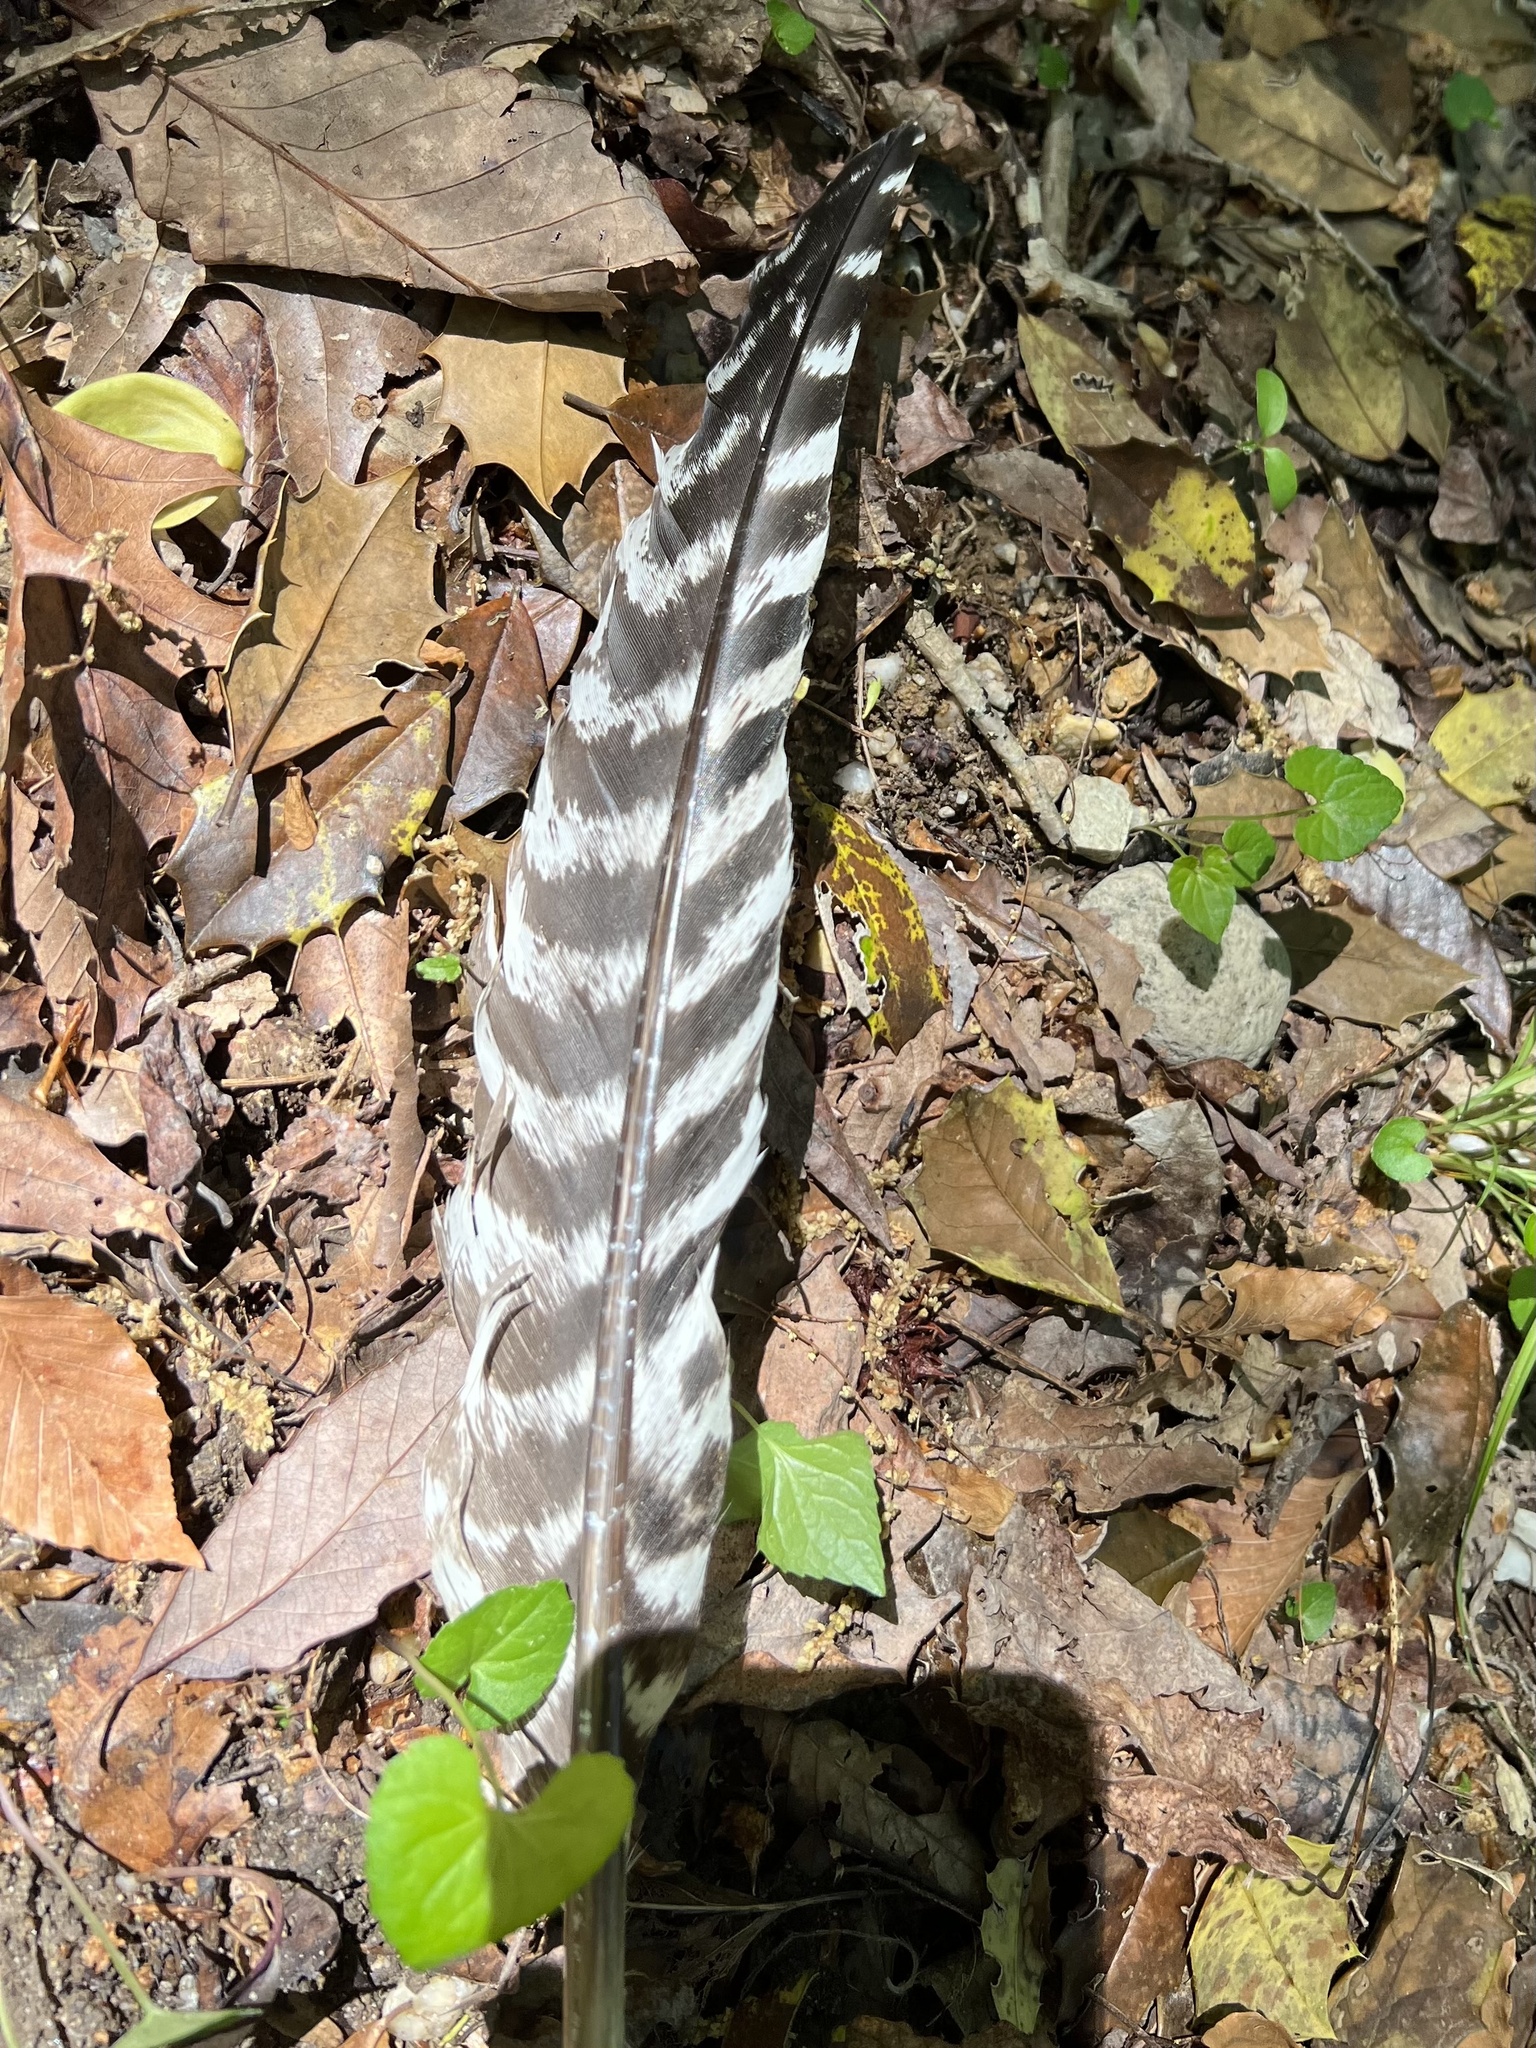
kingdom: Animalia
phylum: Chordata
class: Aves
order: Galliformes
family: Phasianidae
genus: Meleagris
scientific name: Meleagris gallopavo
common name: Wild turkey
